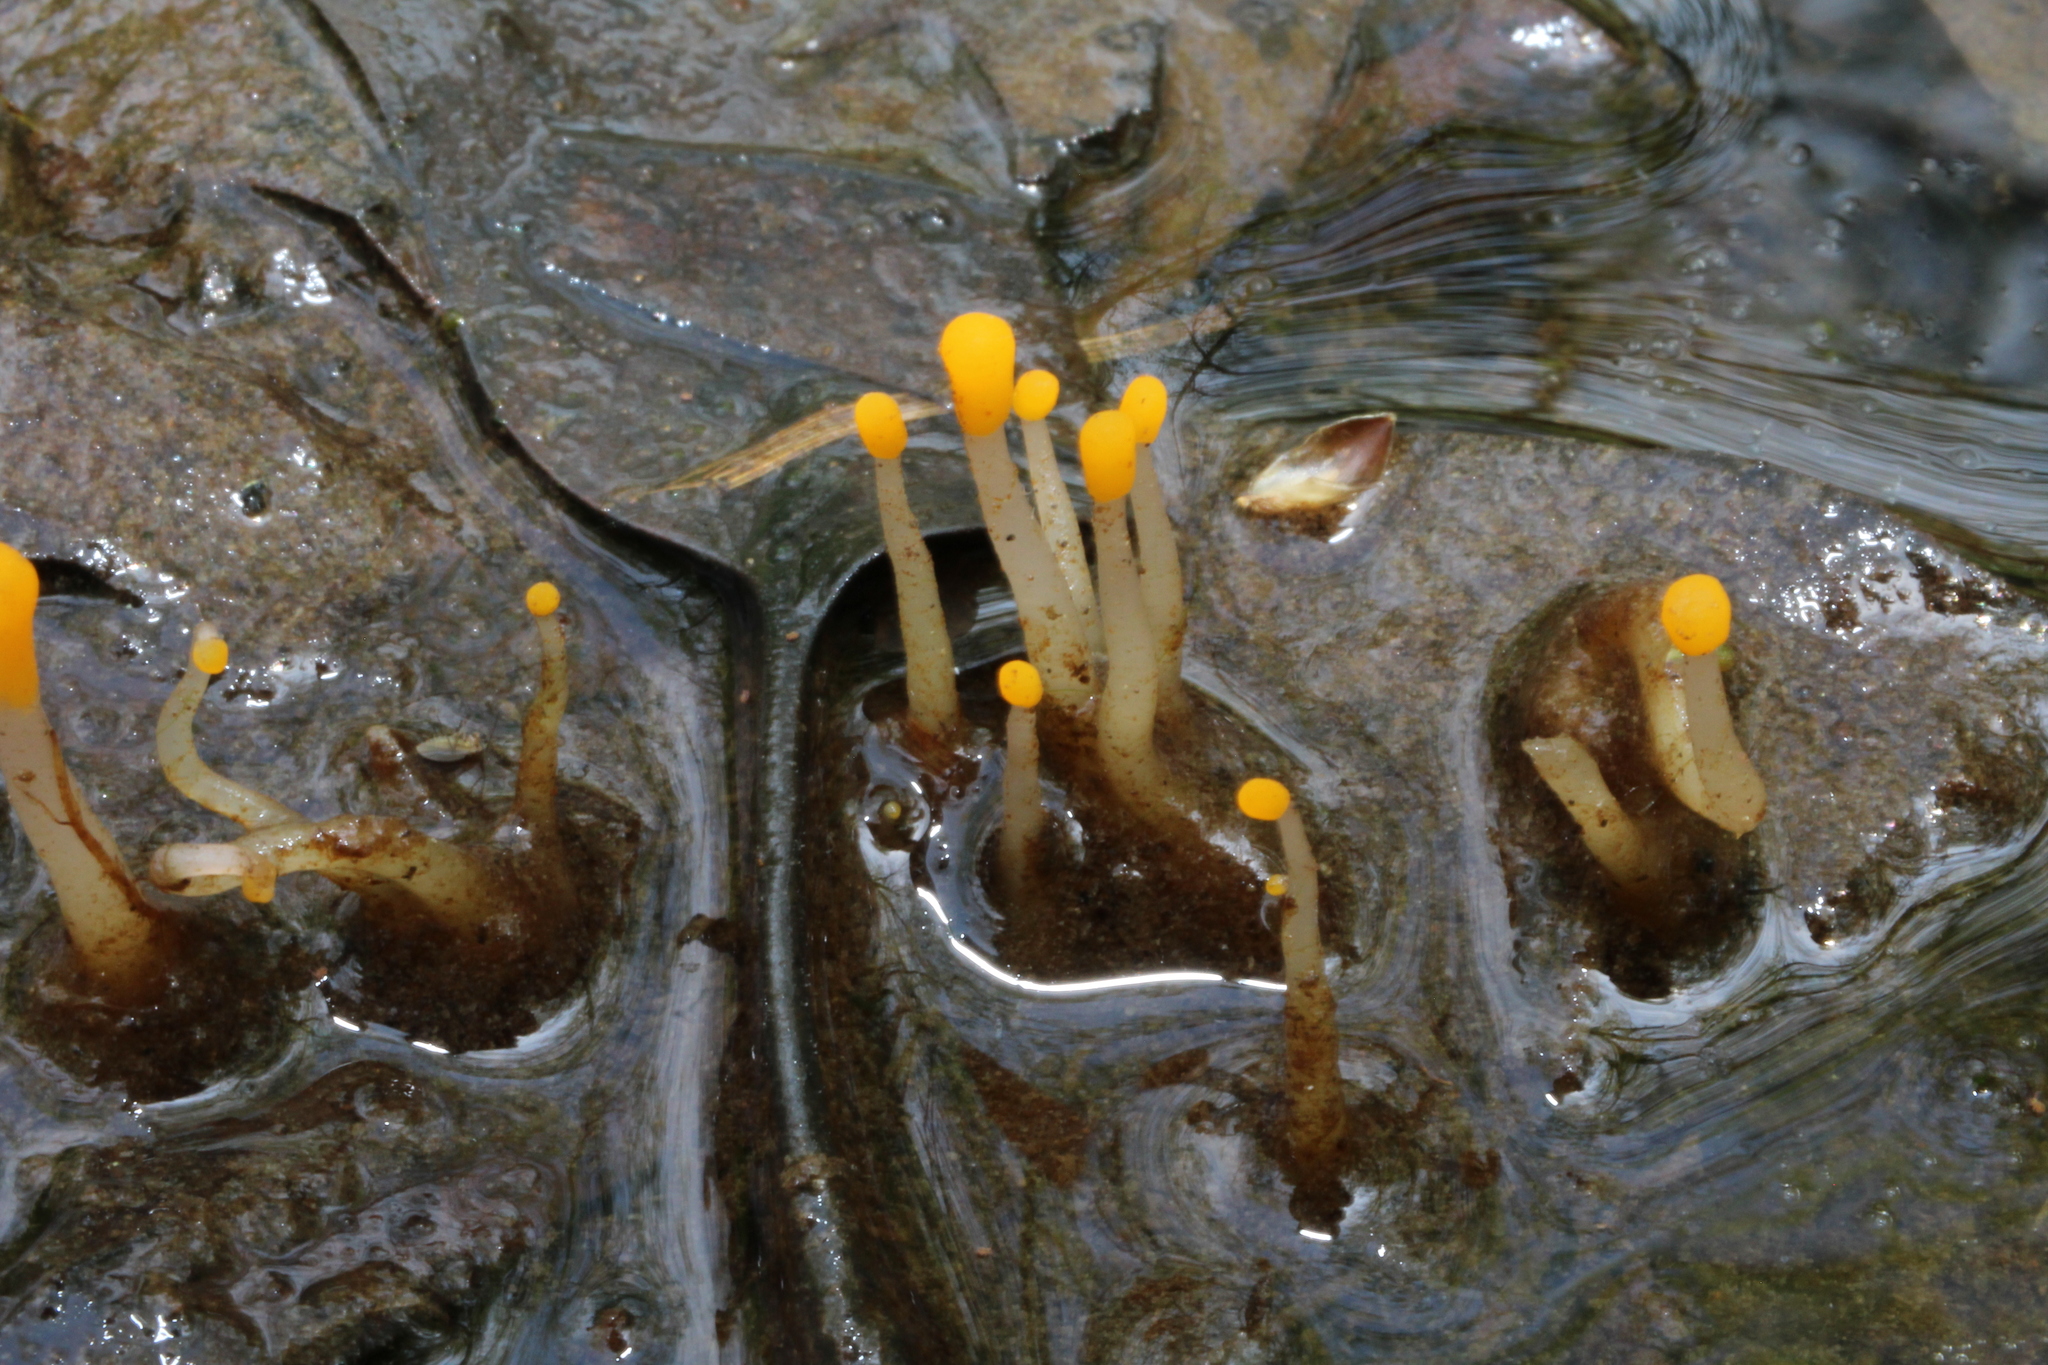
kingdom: Fungi
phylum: Ascomycota
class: Leotiomycetes
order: Helotiales
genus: Mitrula
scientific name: Mitrula
